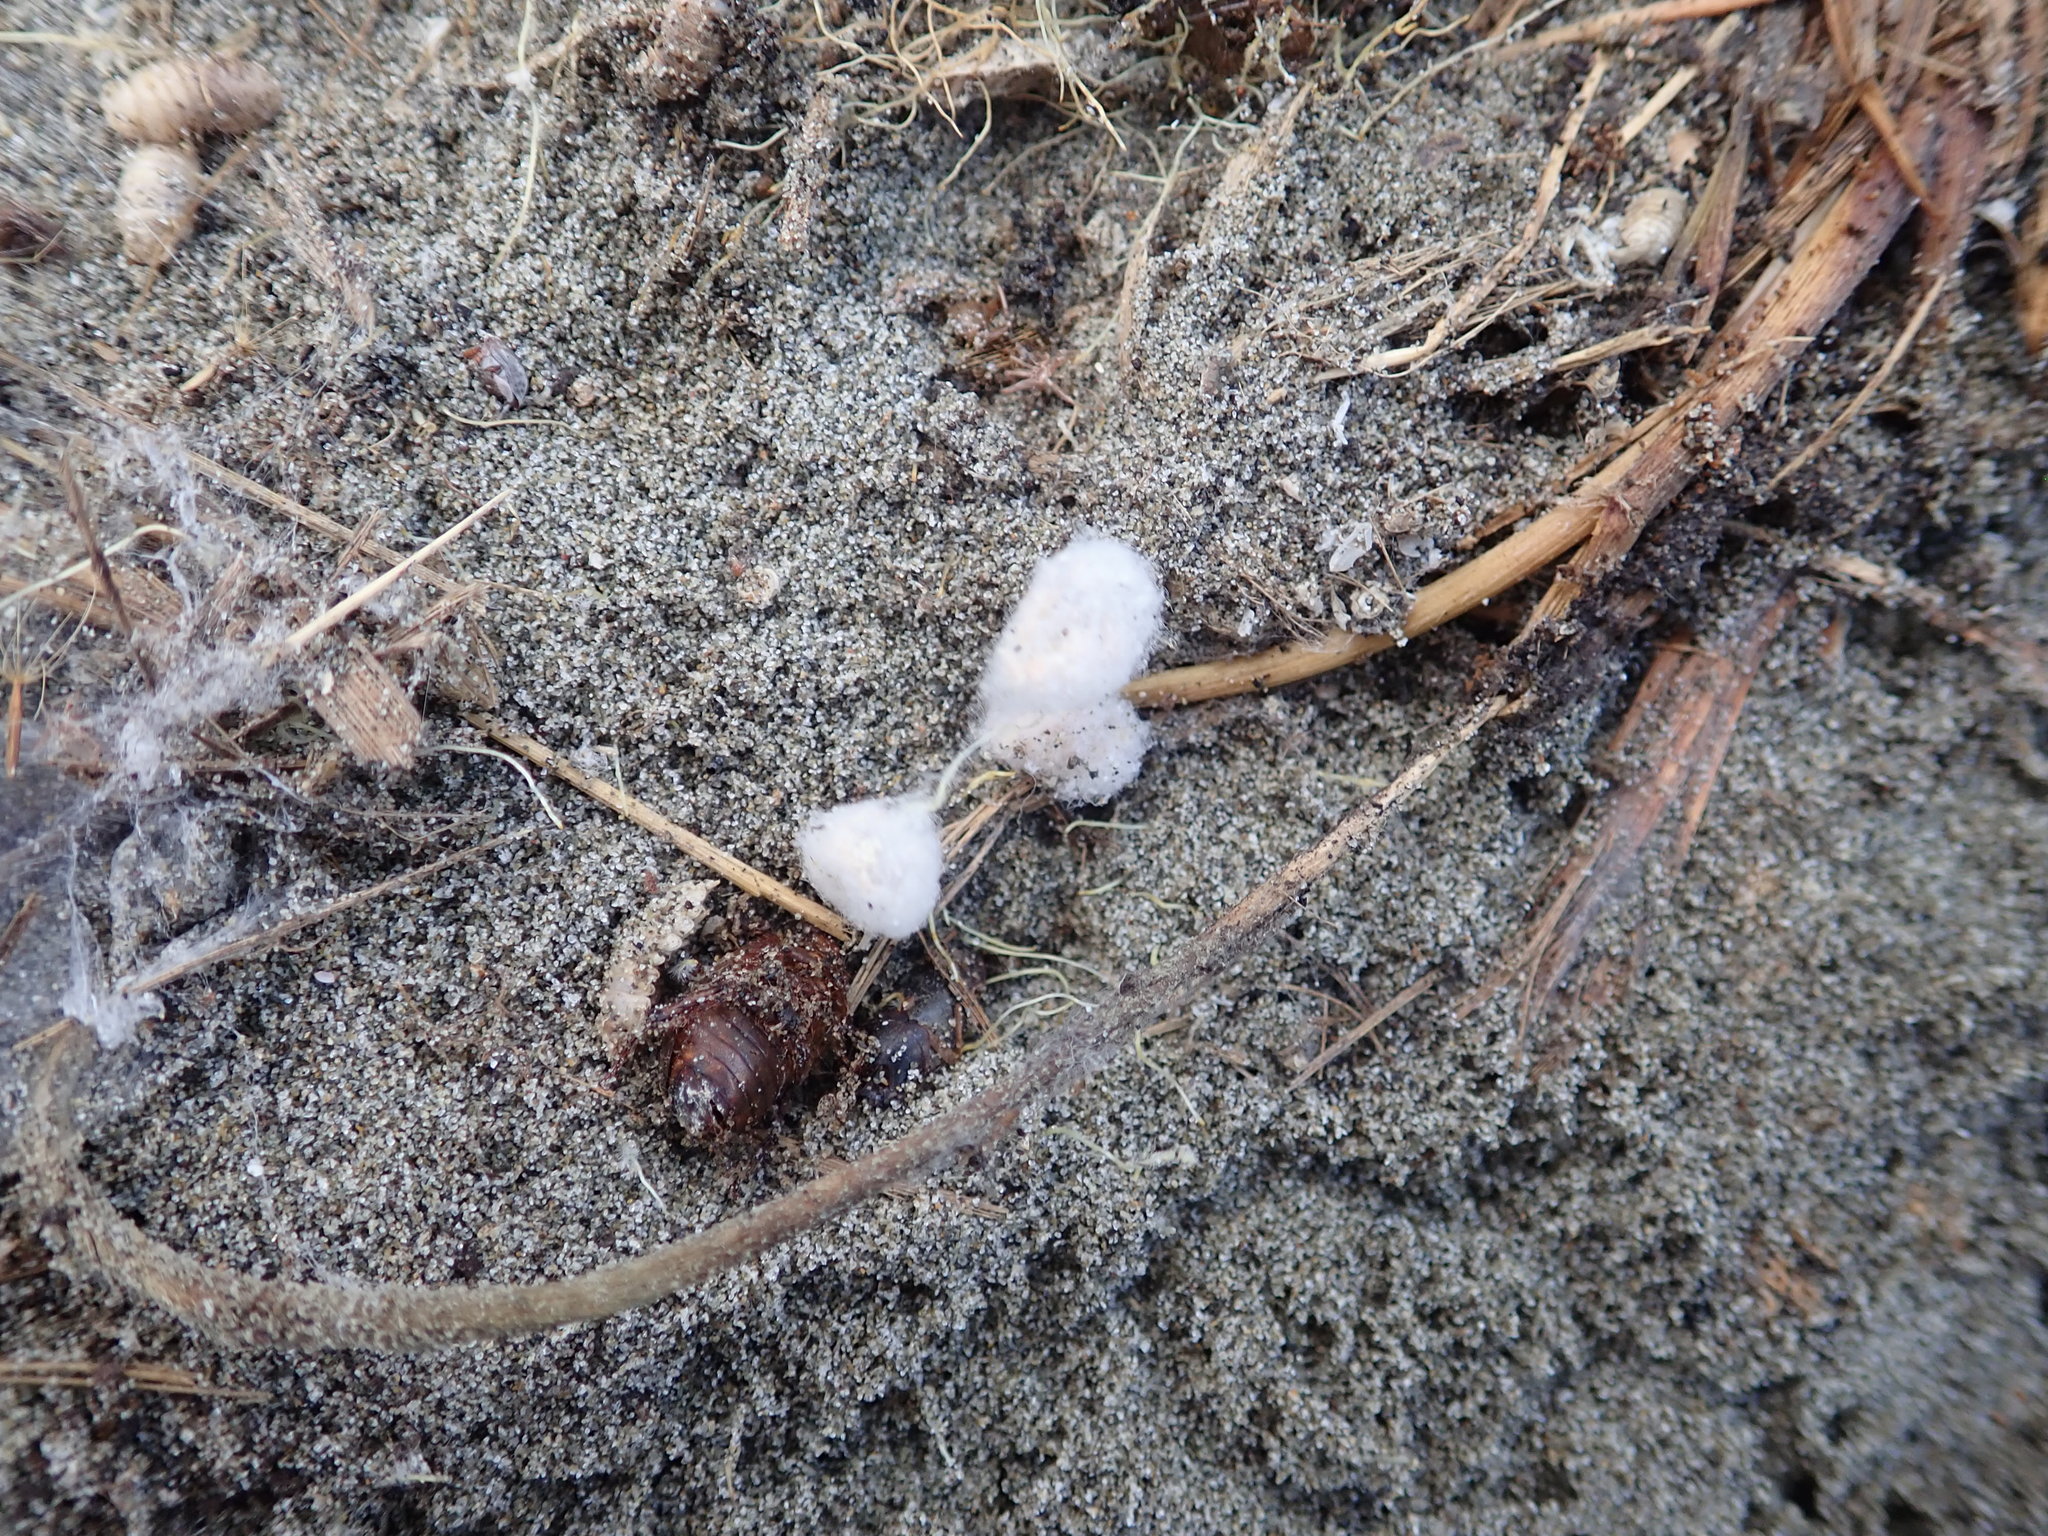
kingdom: Animalia
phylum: Arthropoda
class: Arachnida
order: Araneae
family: Porrhothelidae
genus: Porrhothele
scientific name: Porrhothele antipodiana
